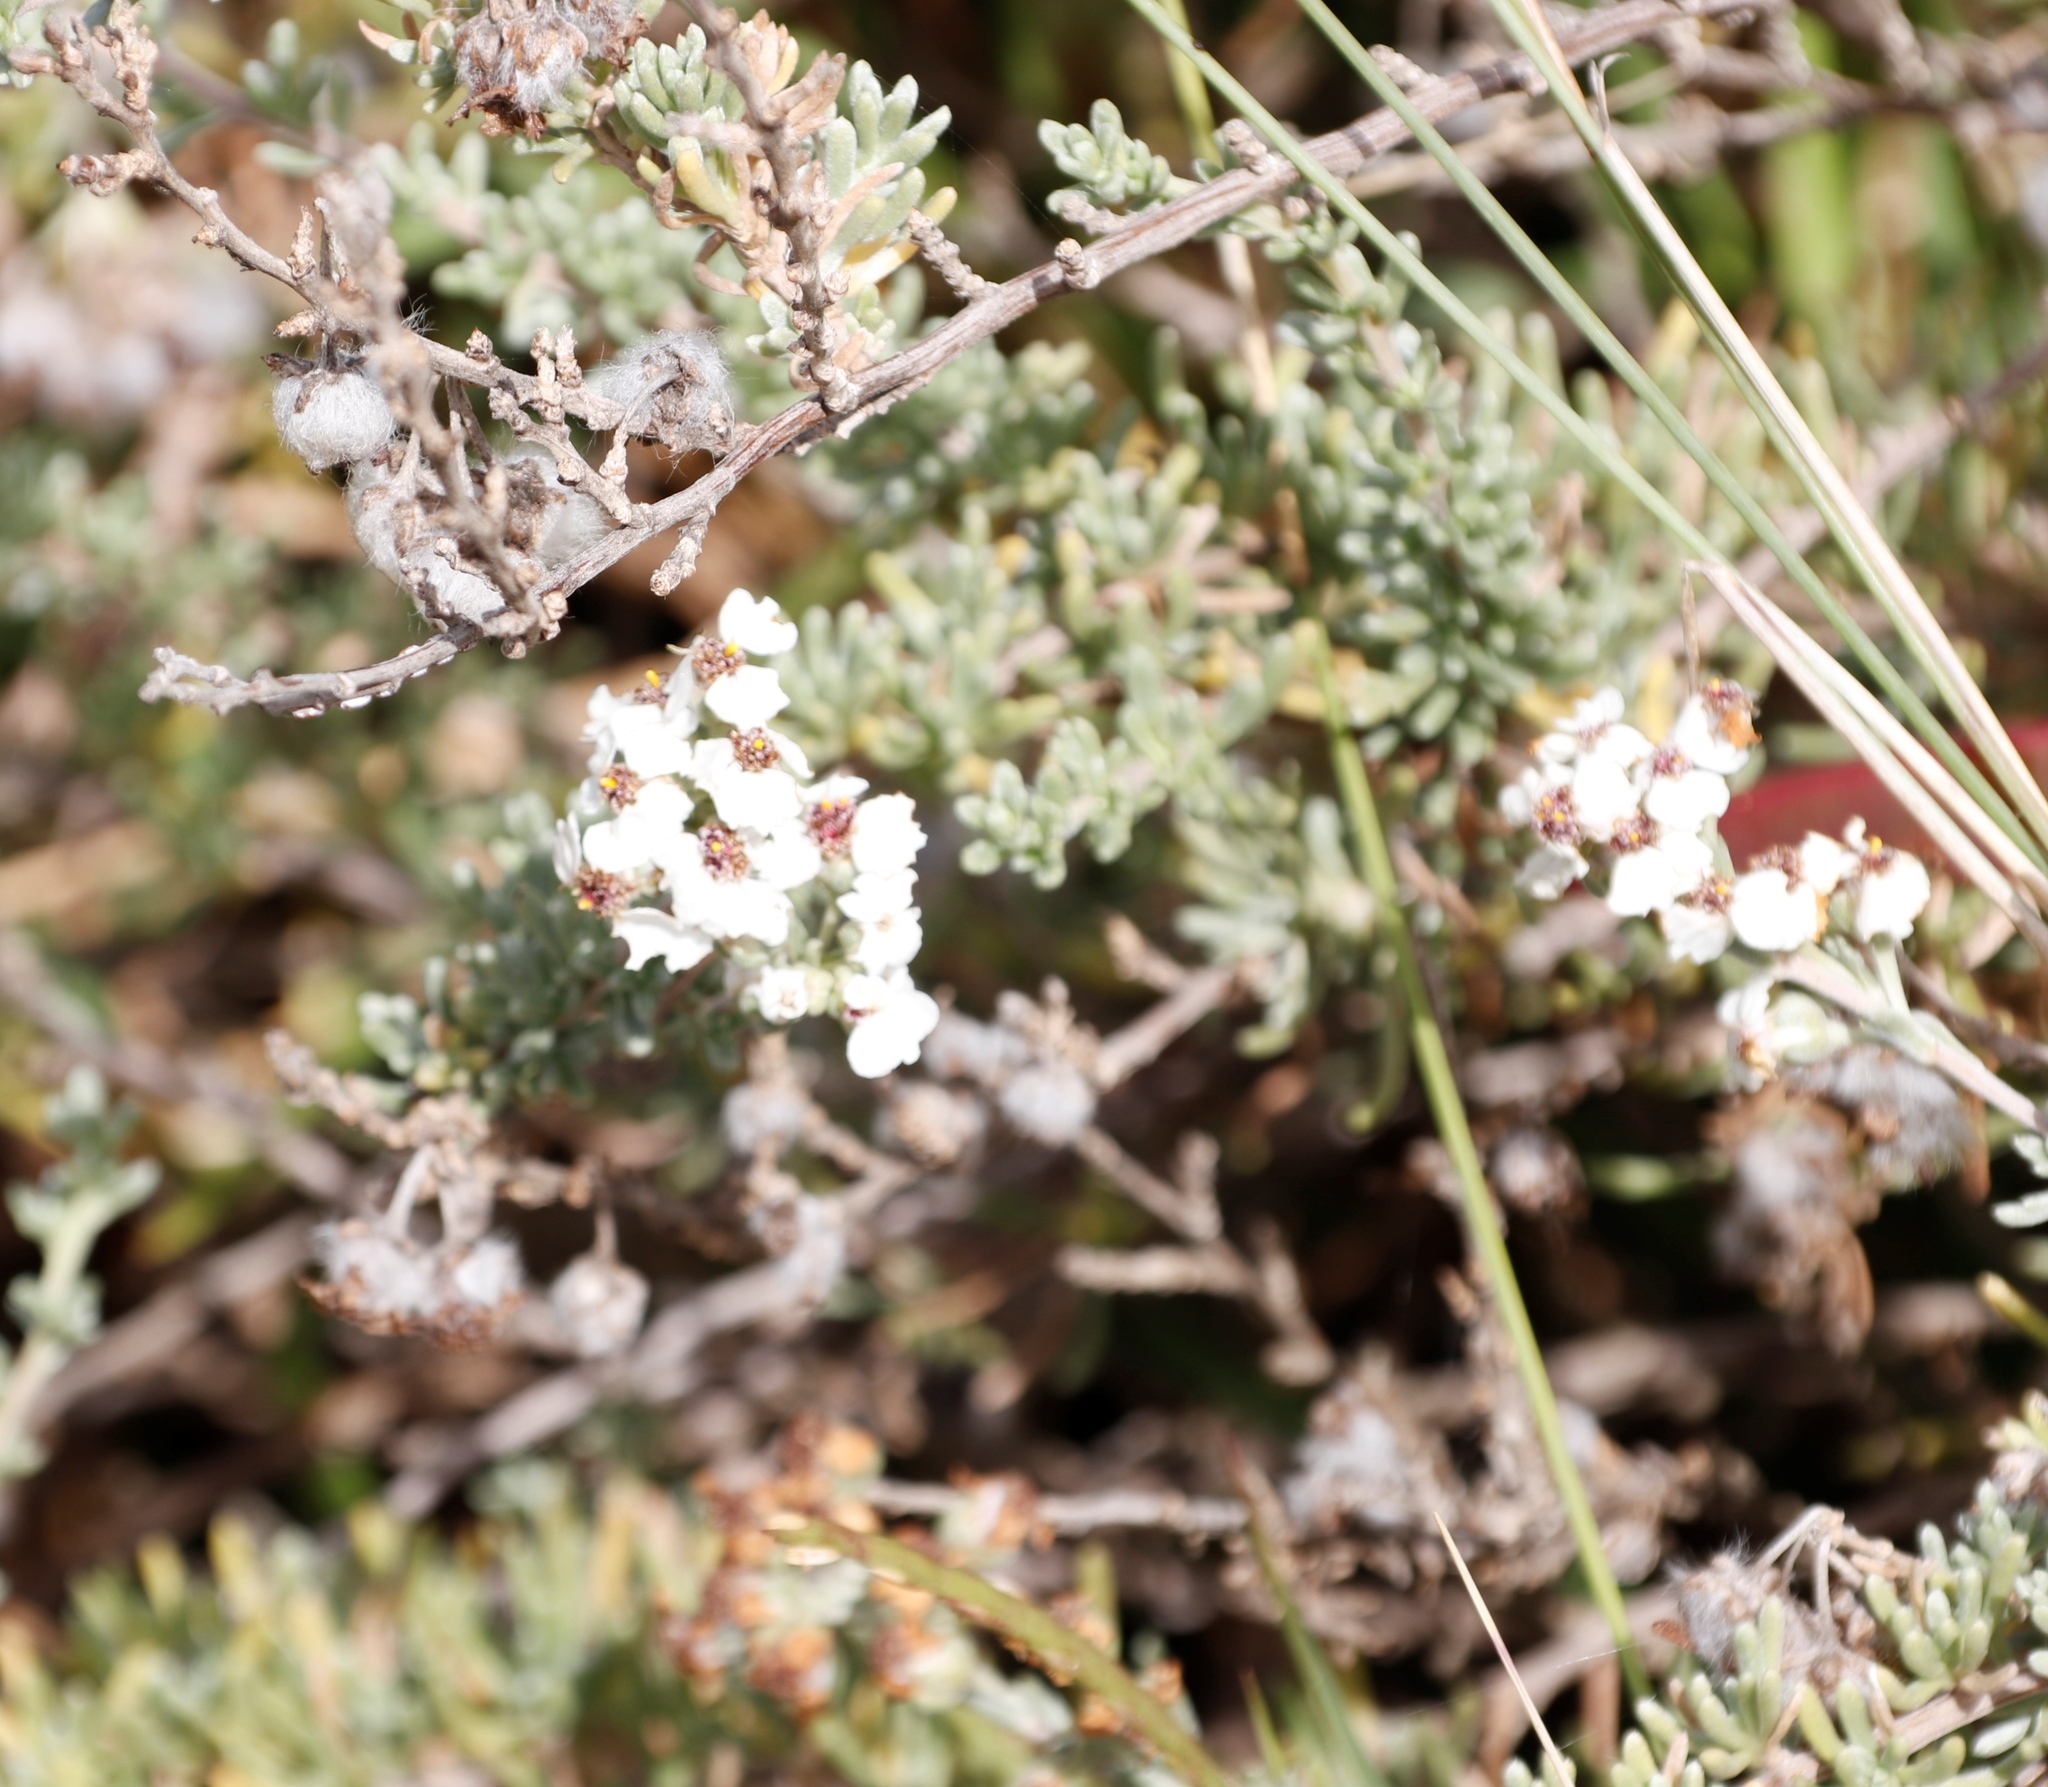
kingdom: Plantae
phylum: Tracheophyta
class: Magnoliopsida
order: Asterales
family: Asteraceae
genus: Eriocephalus
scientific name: Eriocephalus africanus
